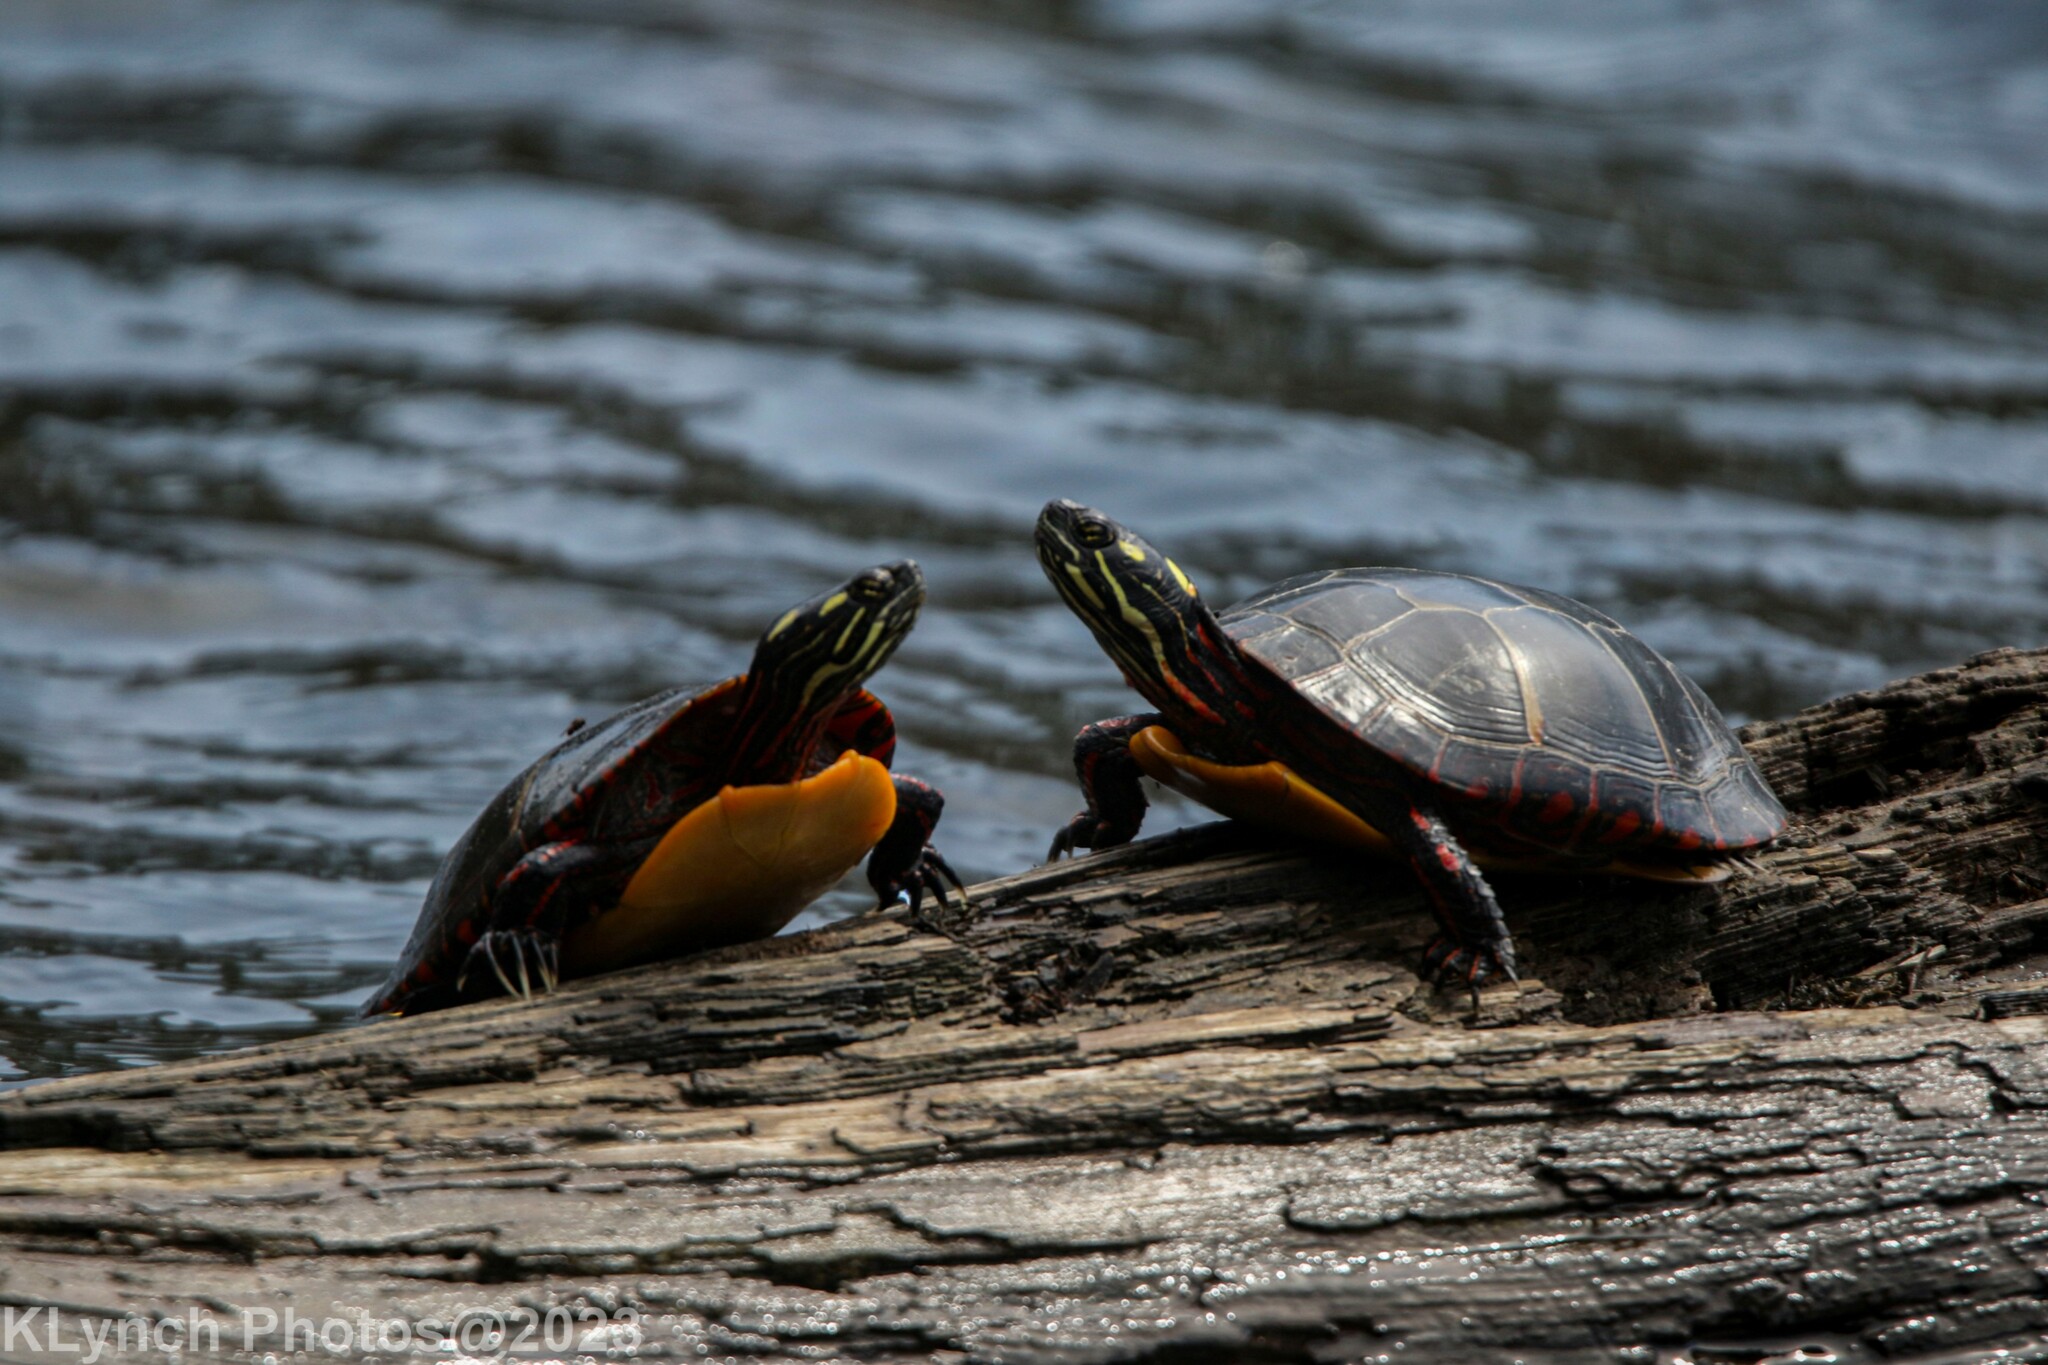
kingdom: Animalia
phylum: Chordata
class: Testudines
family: Emydidae
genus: Chrysemys
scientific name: Chrysemys picta
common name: Painted turtle
